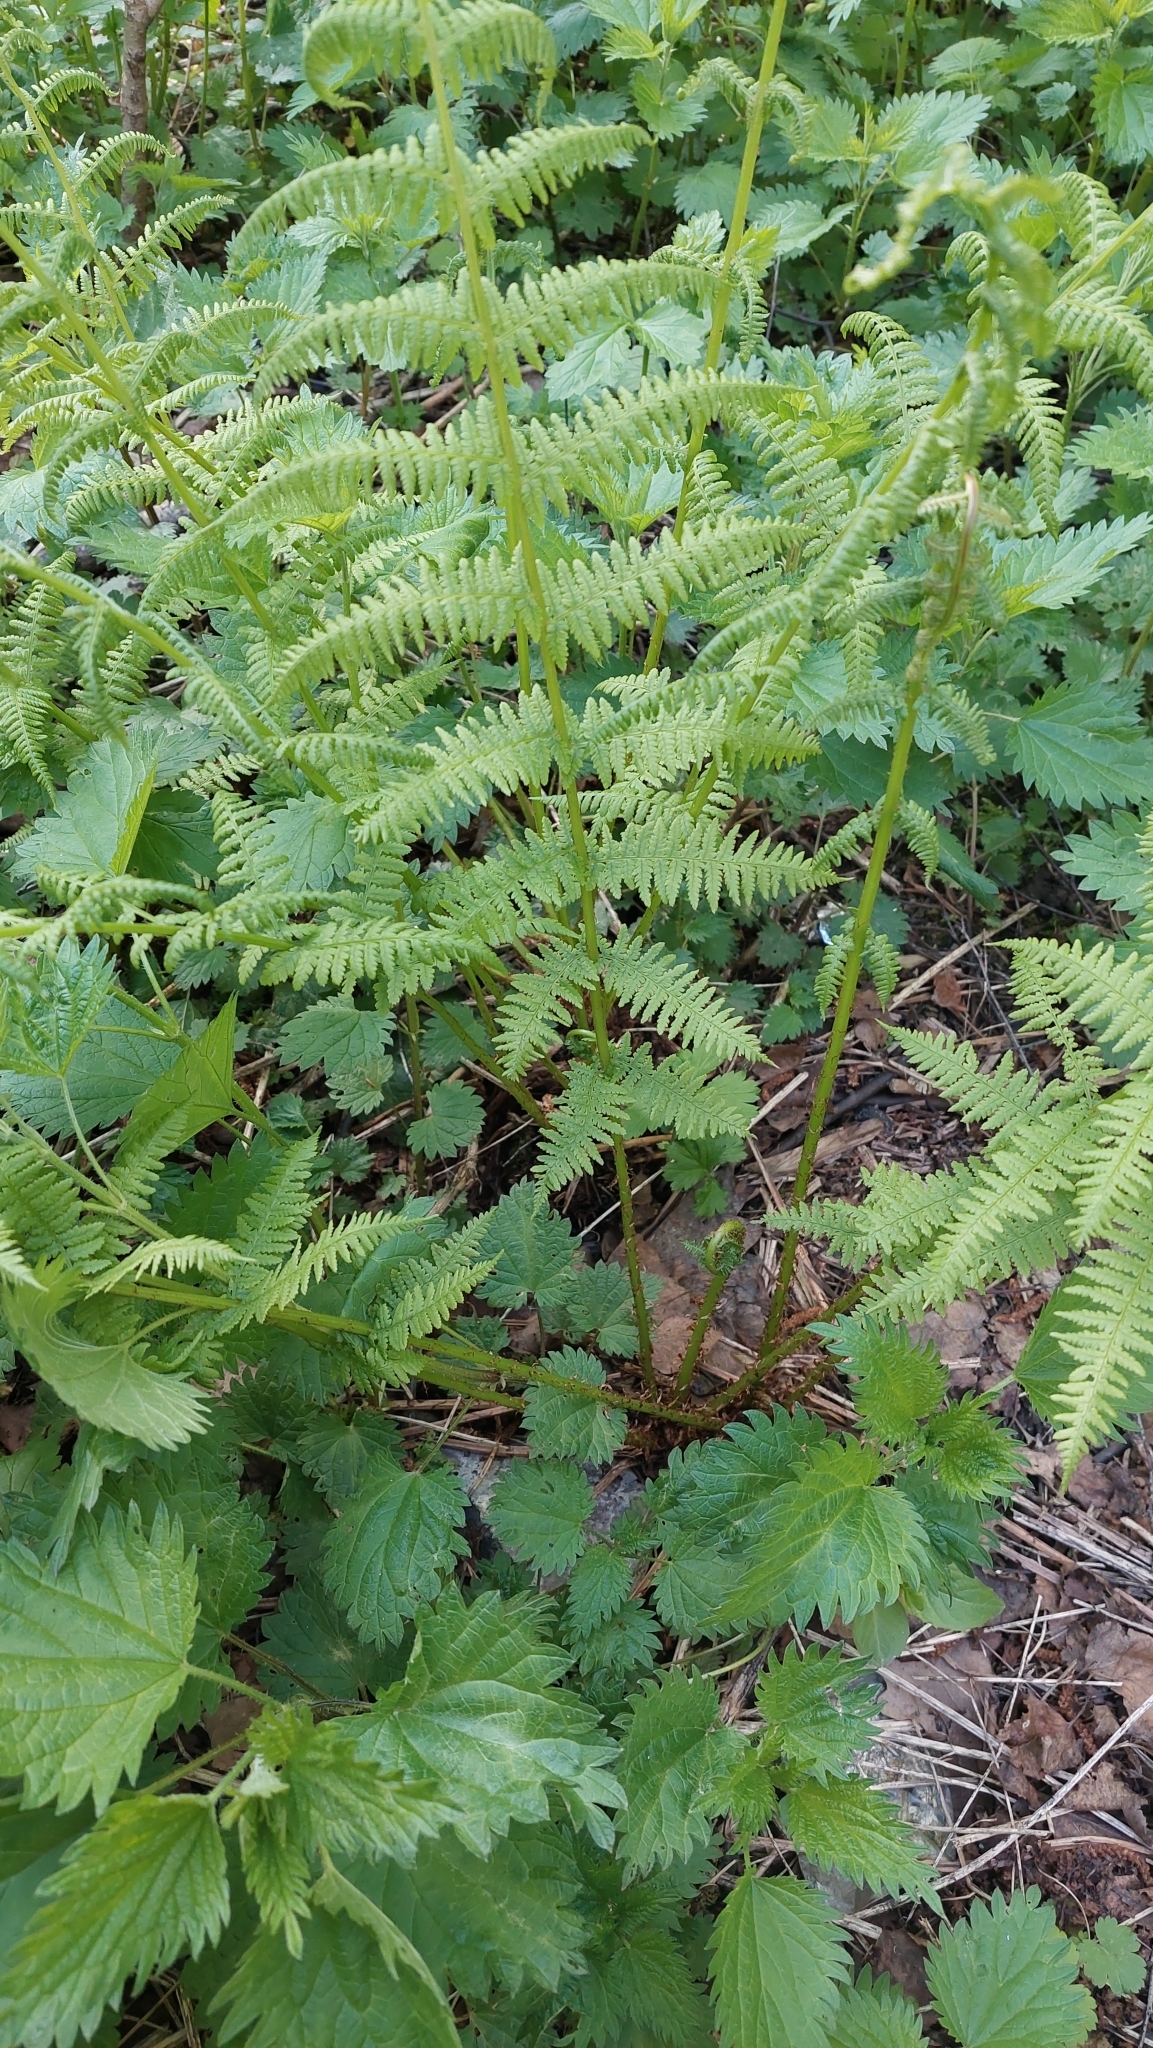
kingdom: Plantae
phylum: Tracheophyta
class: Polypodiopsida
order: Polypodiales
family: Athyriaceae
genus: Athyrium
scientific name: Athyrium filix-femina
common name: Lady fern
